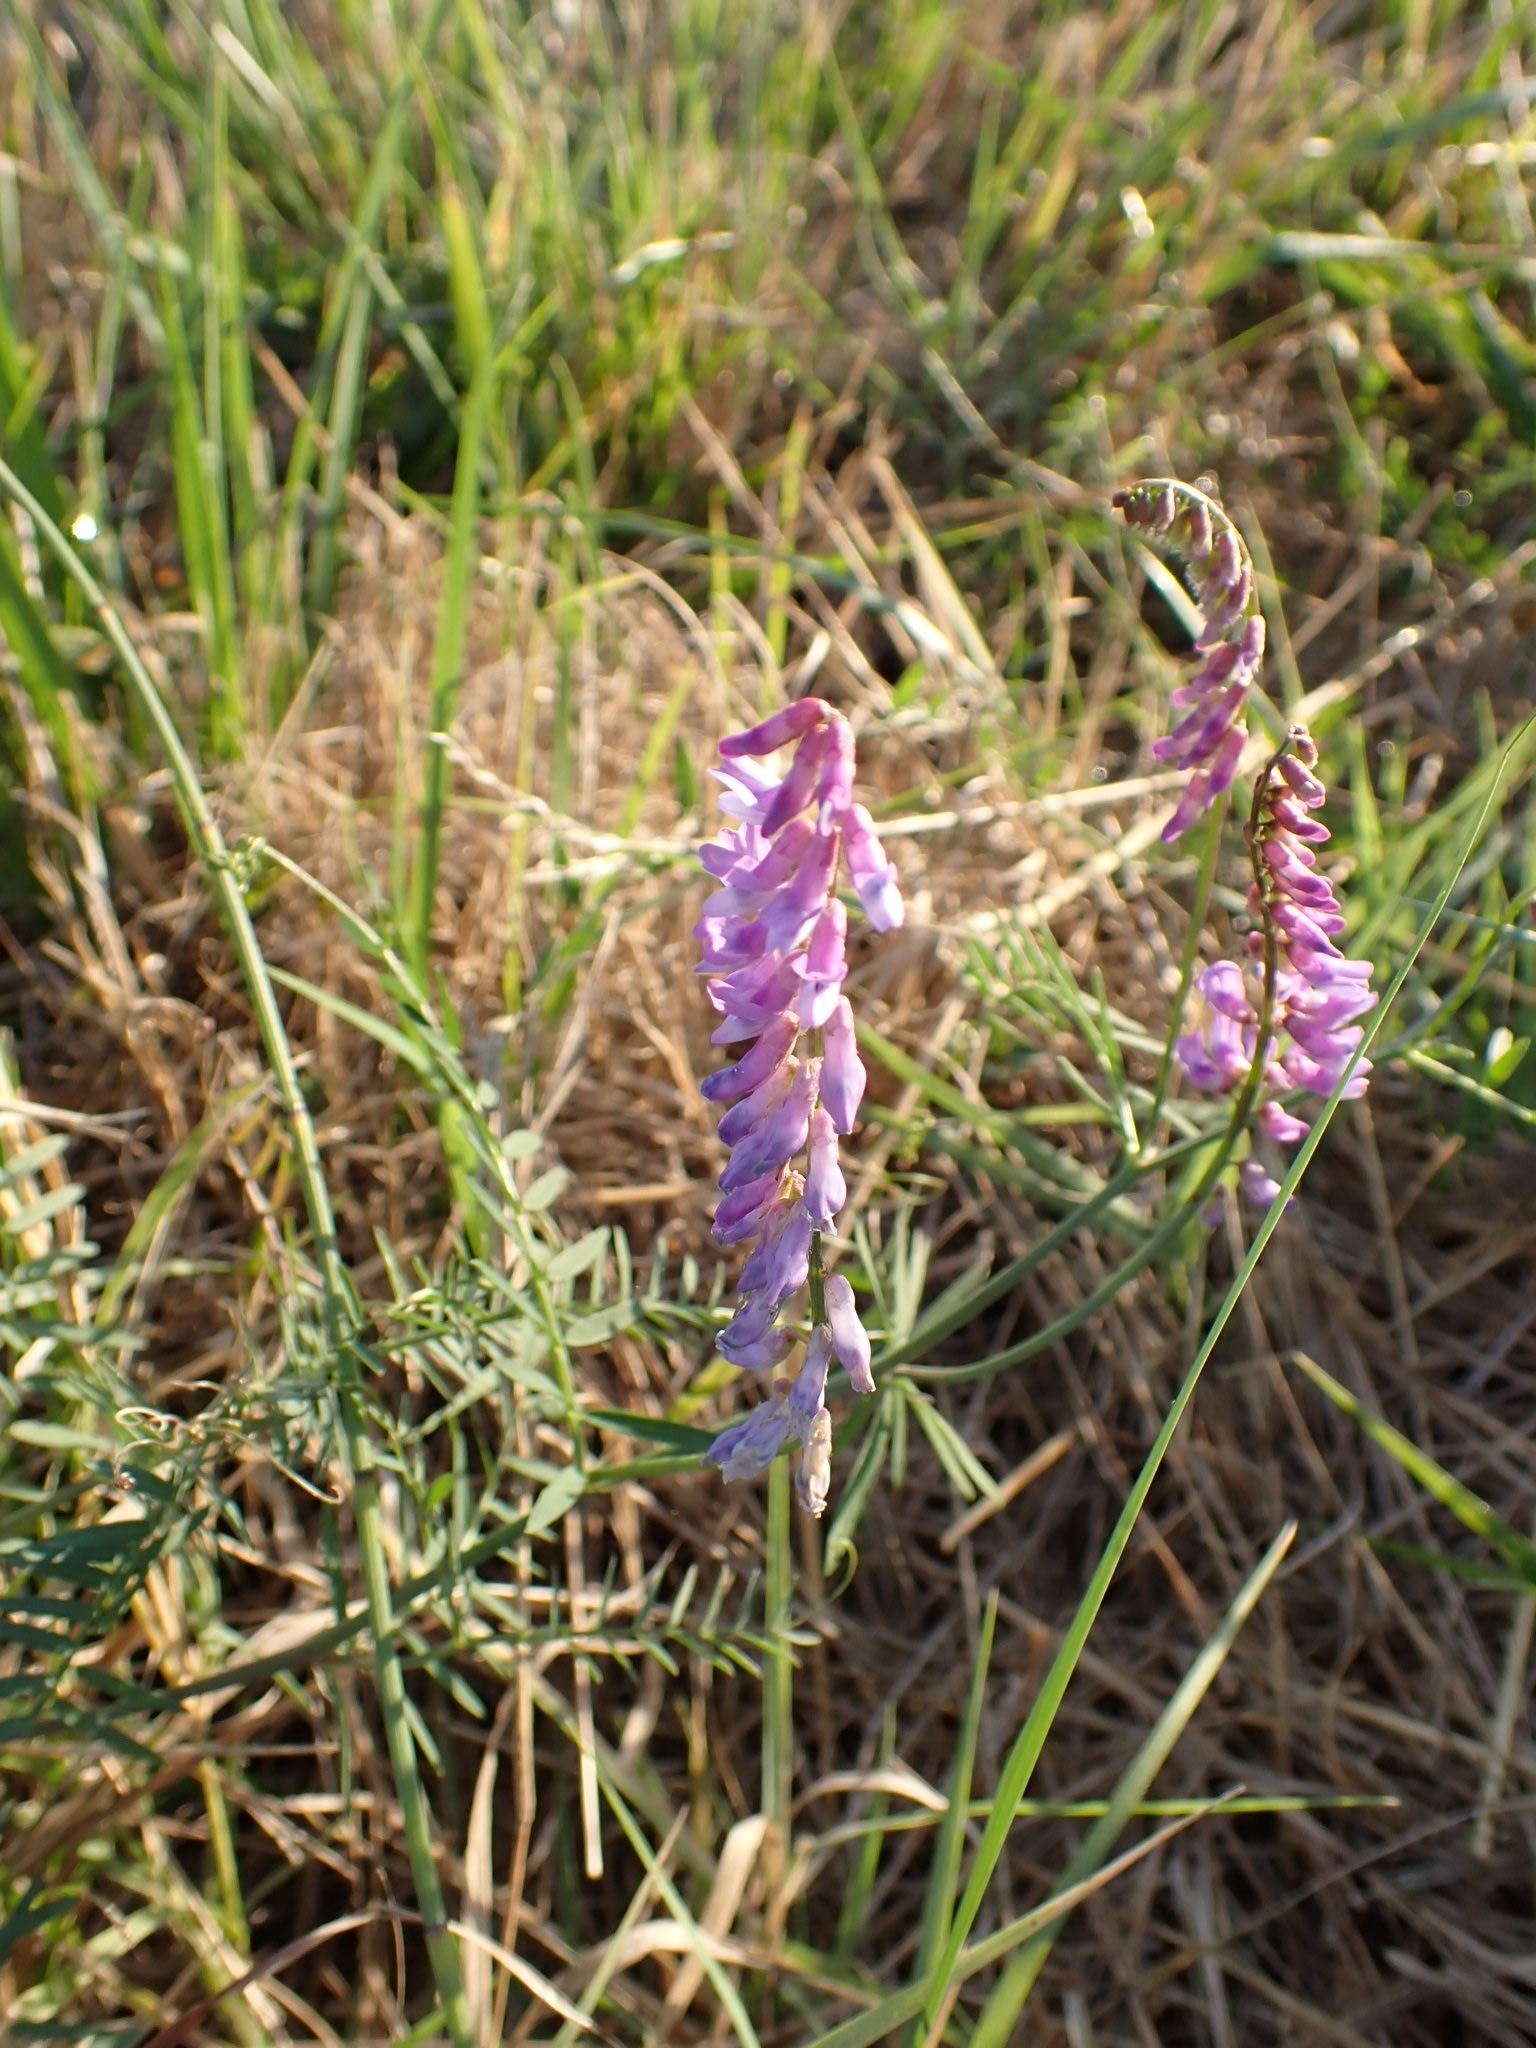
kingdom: Plantae
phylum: Tracheophyta
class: Magnoliopsida
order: Fabales
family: Fabaceae
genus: Vicia
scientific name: Vicia cracca
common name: Bird vetch
